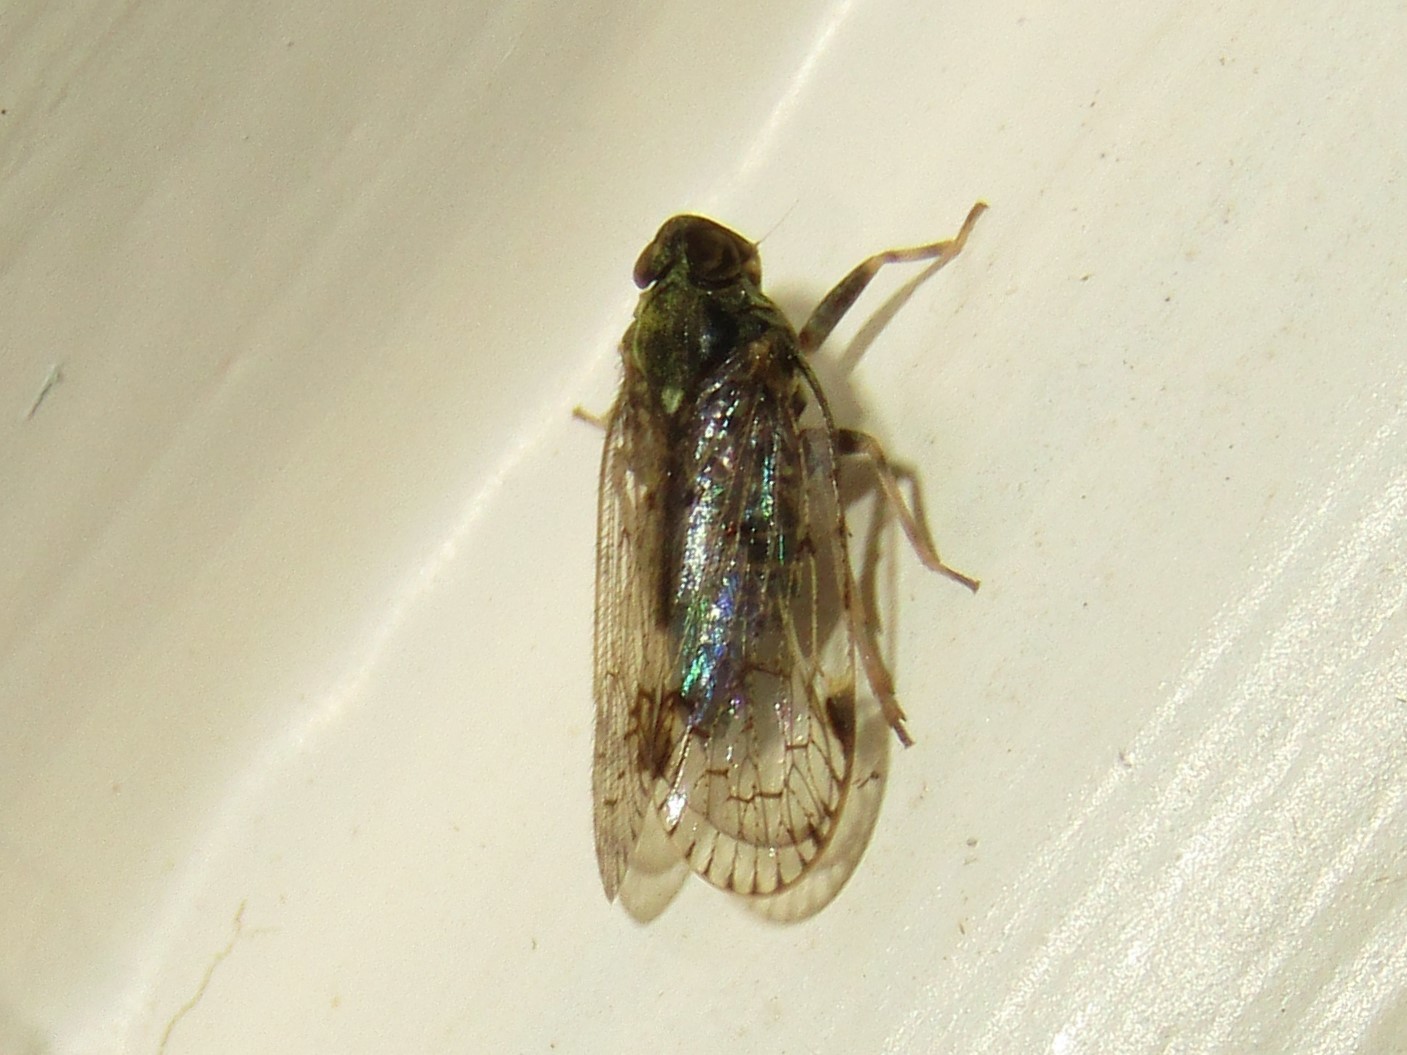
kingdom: Animalia
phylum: Arthropoda
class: Insecta
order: Hemiptera
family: Cixiidae
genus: Melanoliarus
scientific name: Melanoliarus placitus
